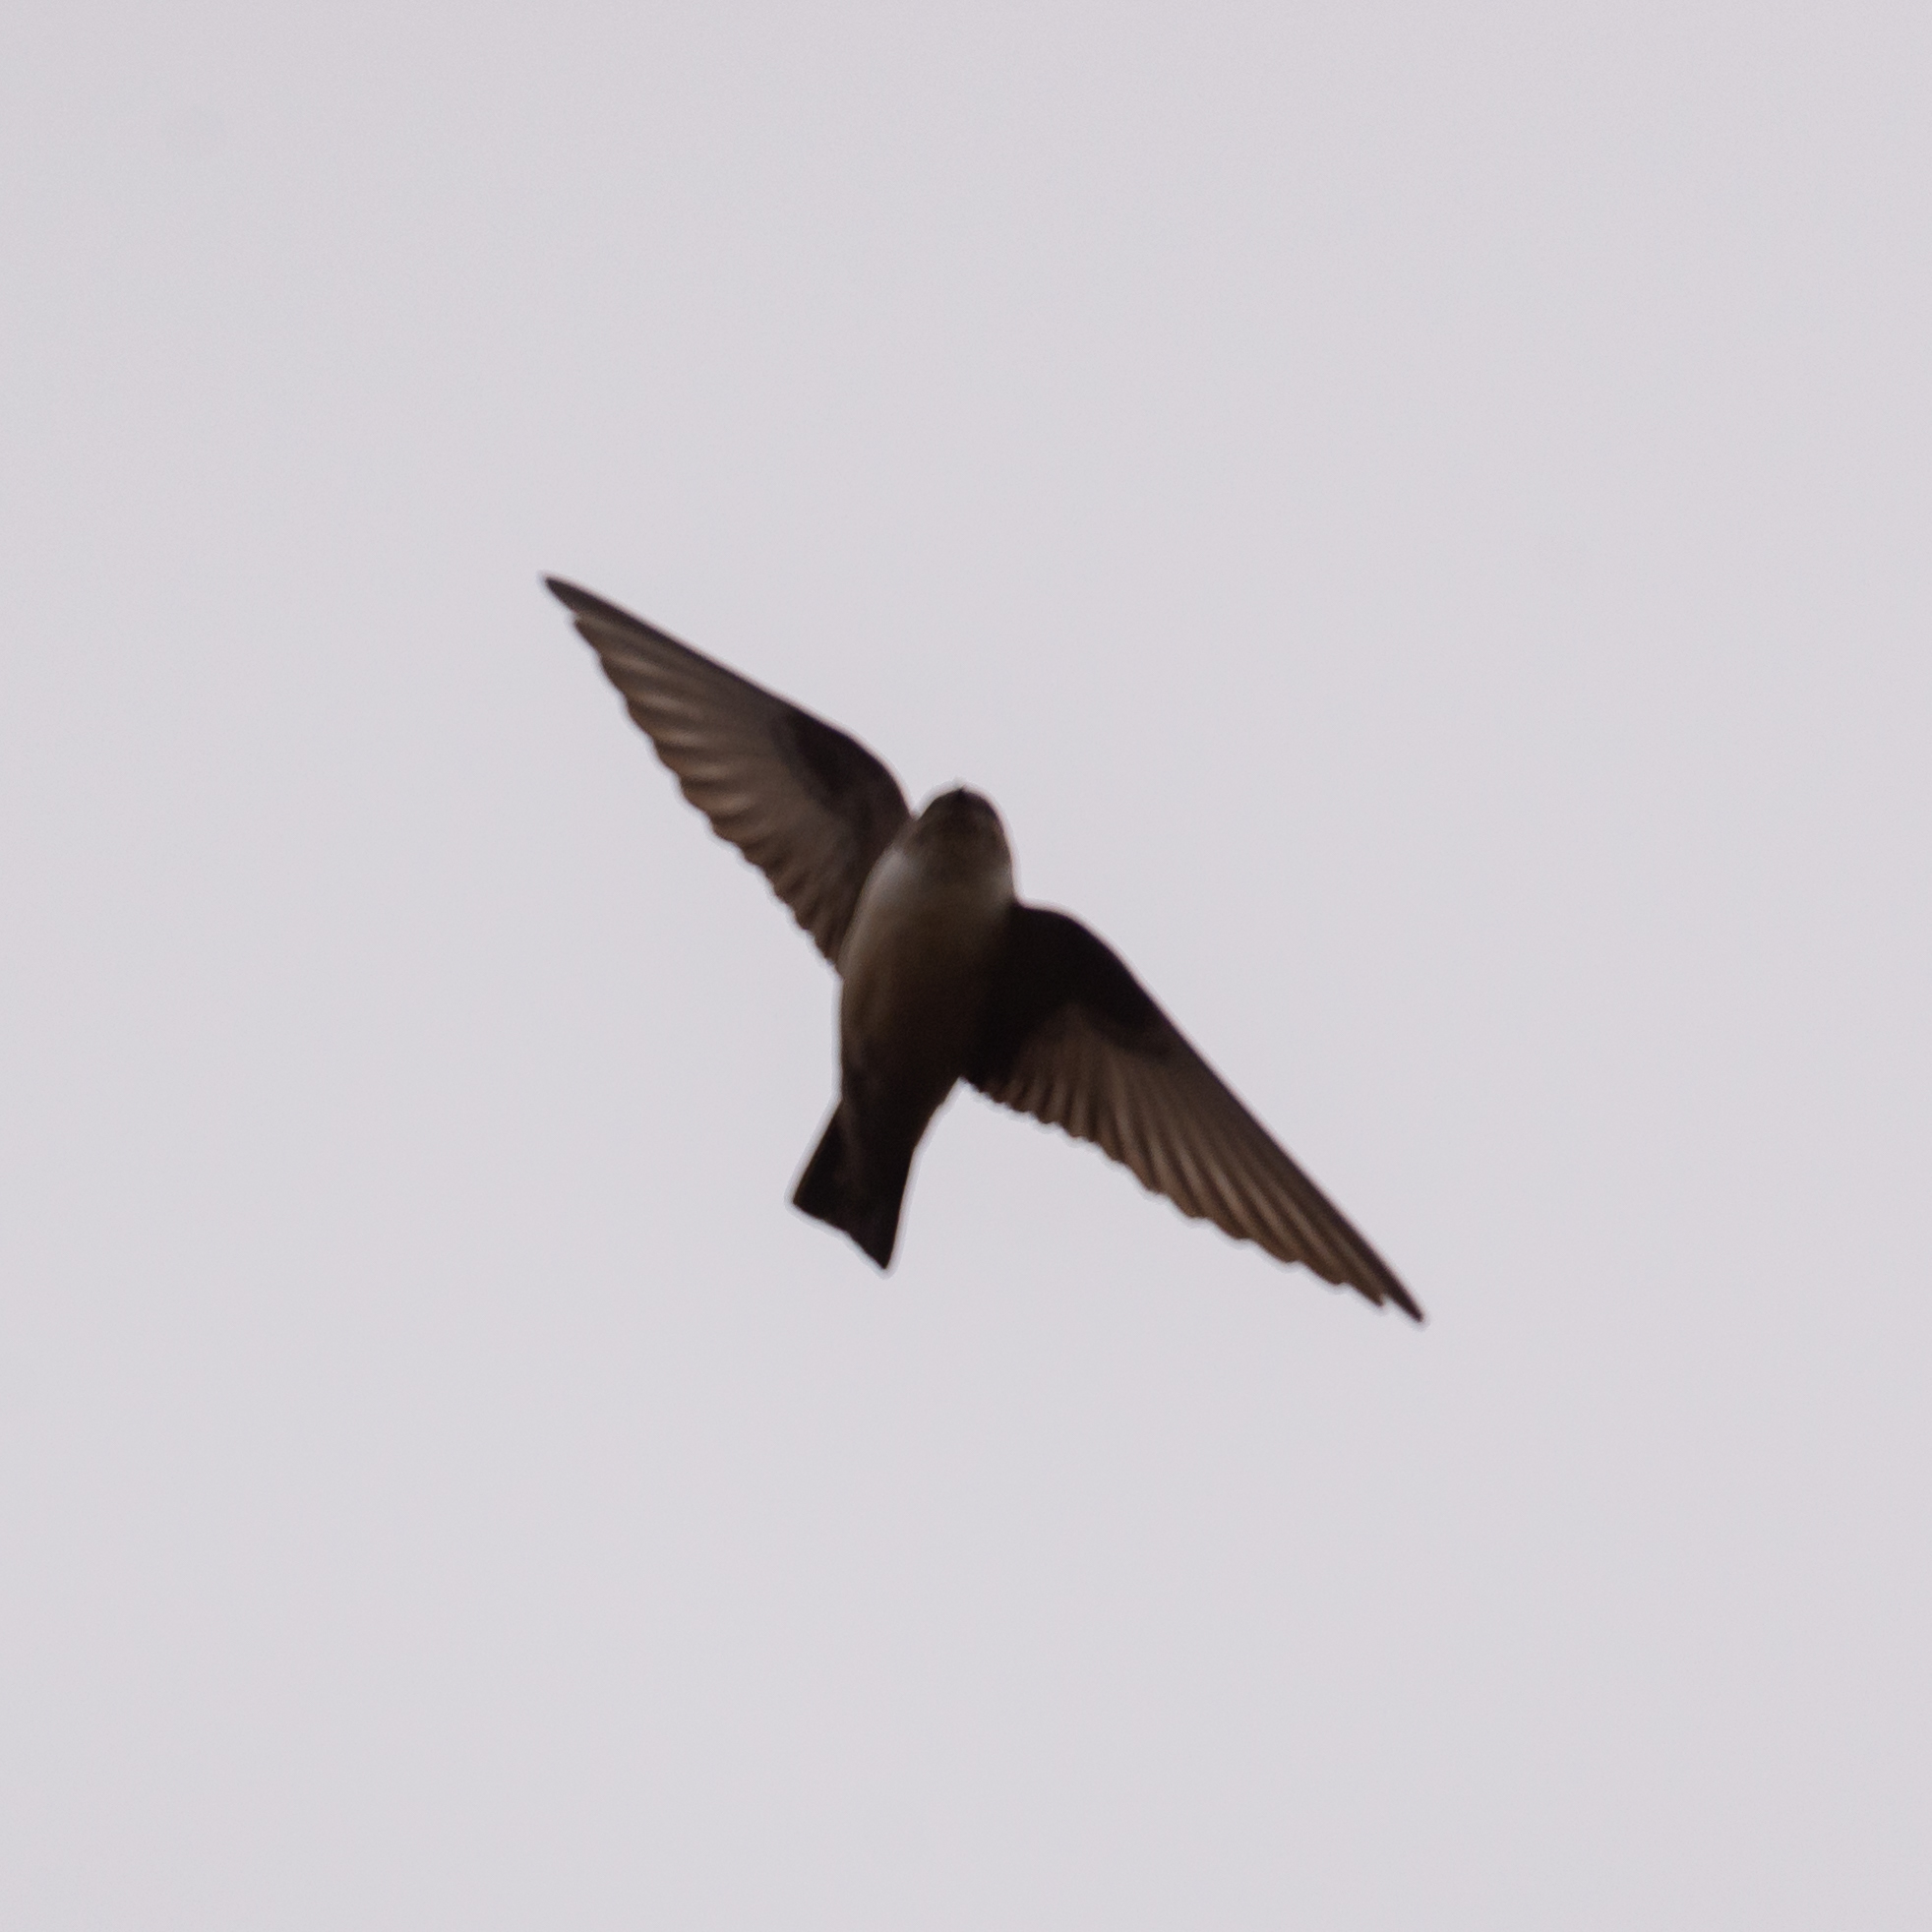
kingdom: Animalia
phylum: Chordata
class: Aves
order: Passeriformes
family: Hirundinidae
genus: Ptyonoprogne
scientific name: Ptyonoprogne rupestris
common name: Eurasian crag martin
